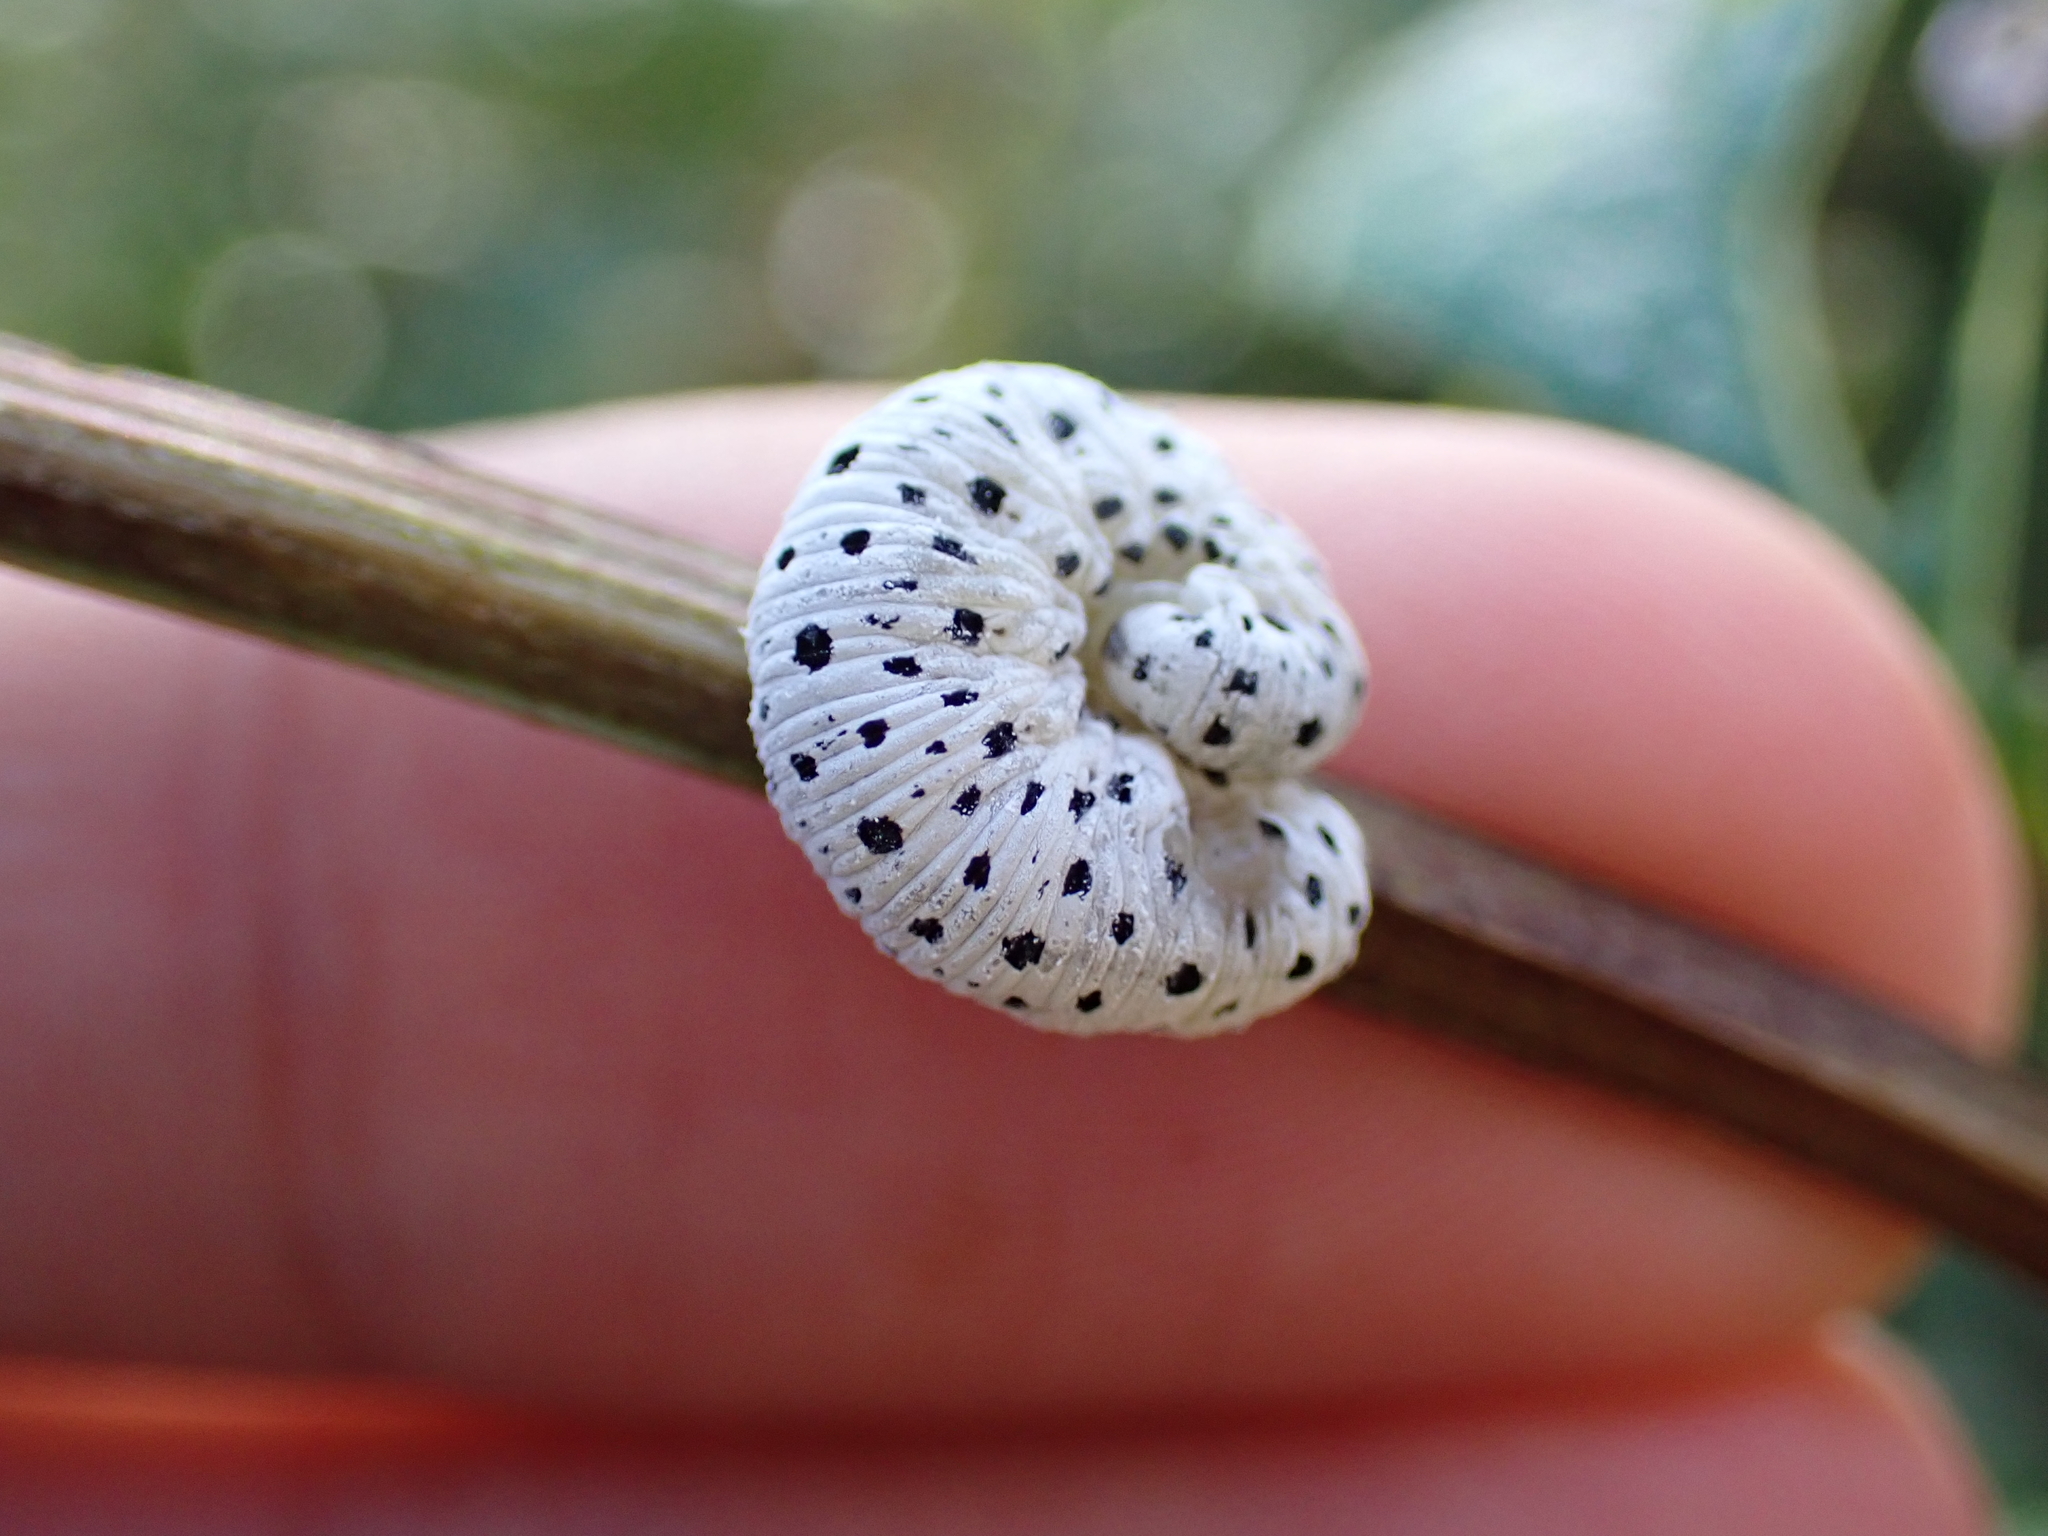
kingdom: Animalia
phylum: Arthropoda
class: Insecta
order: Hymenoptera
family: Tenthredinidae
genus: Tenthredo
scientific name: Tenthredo scrophulariae
